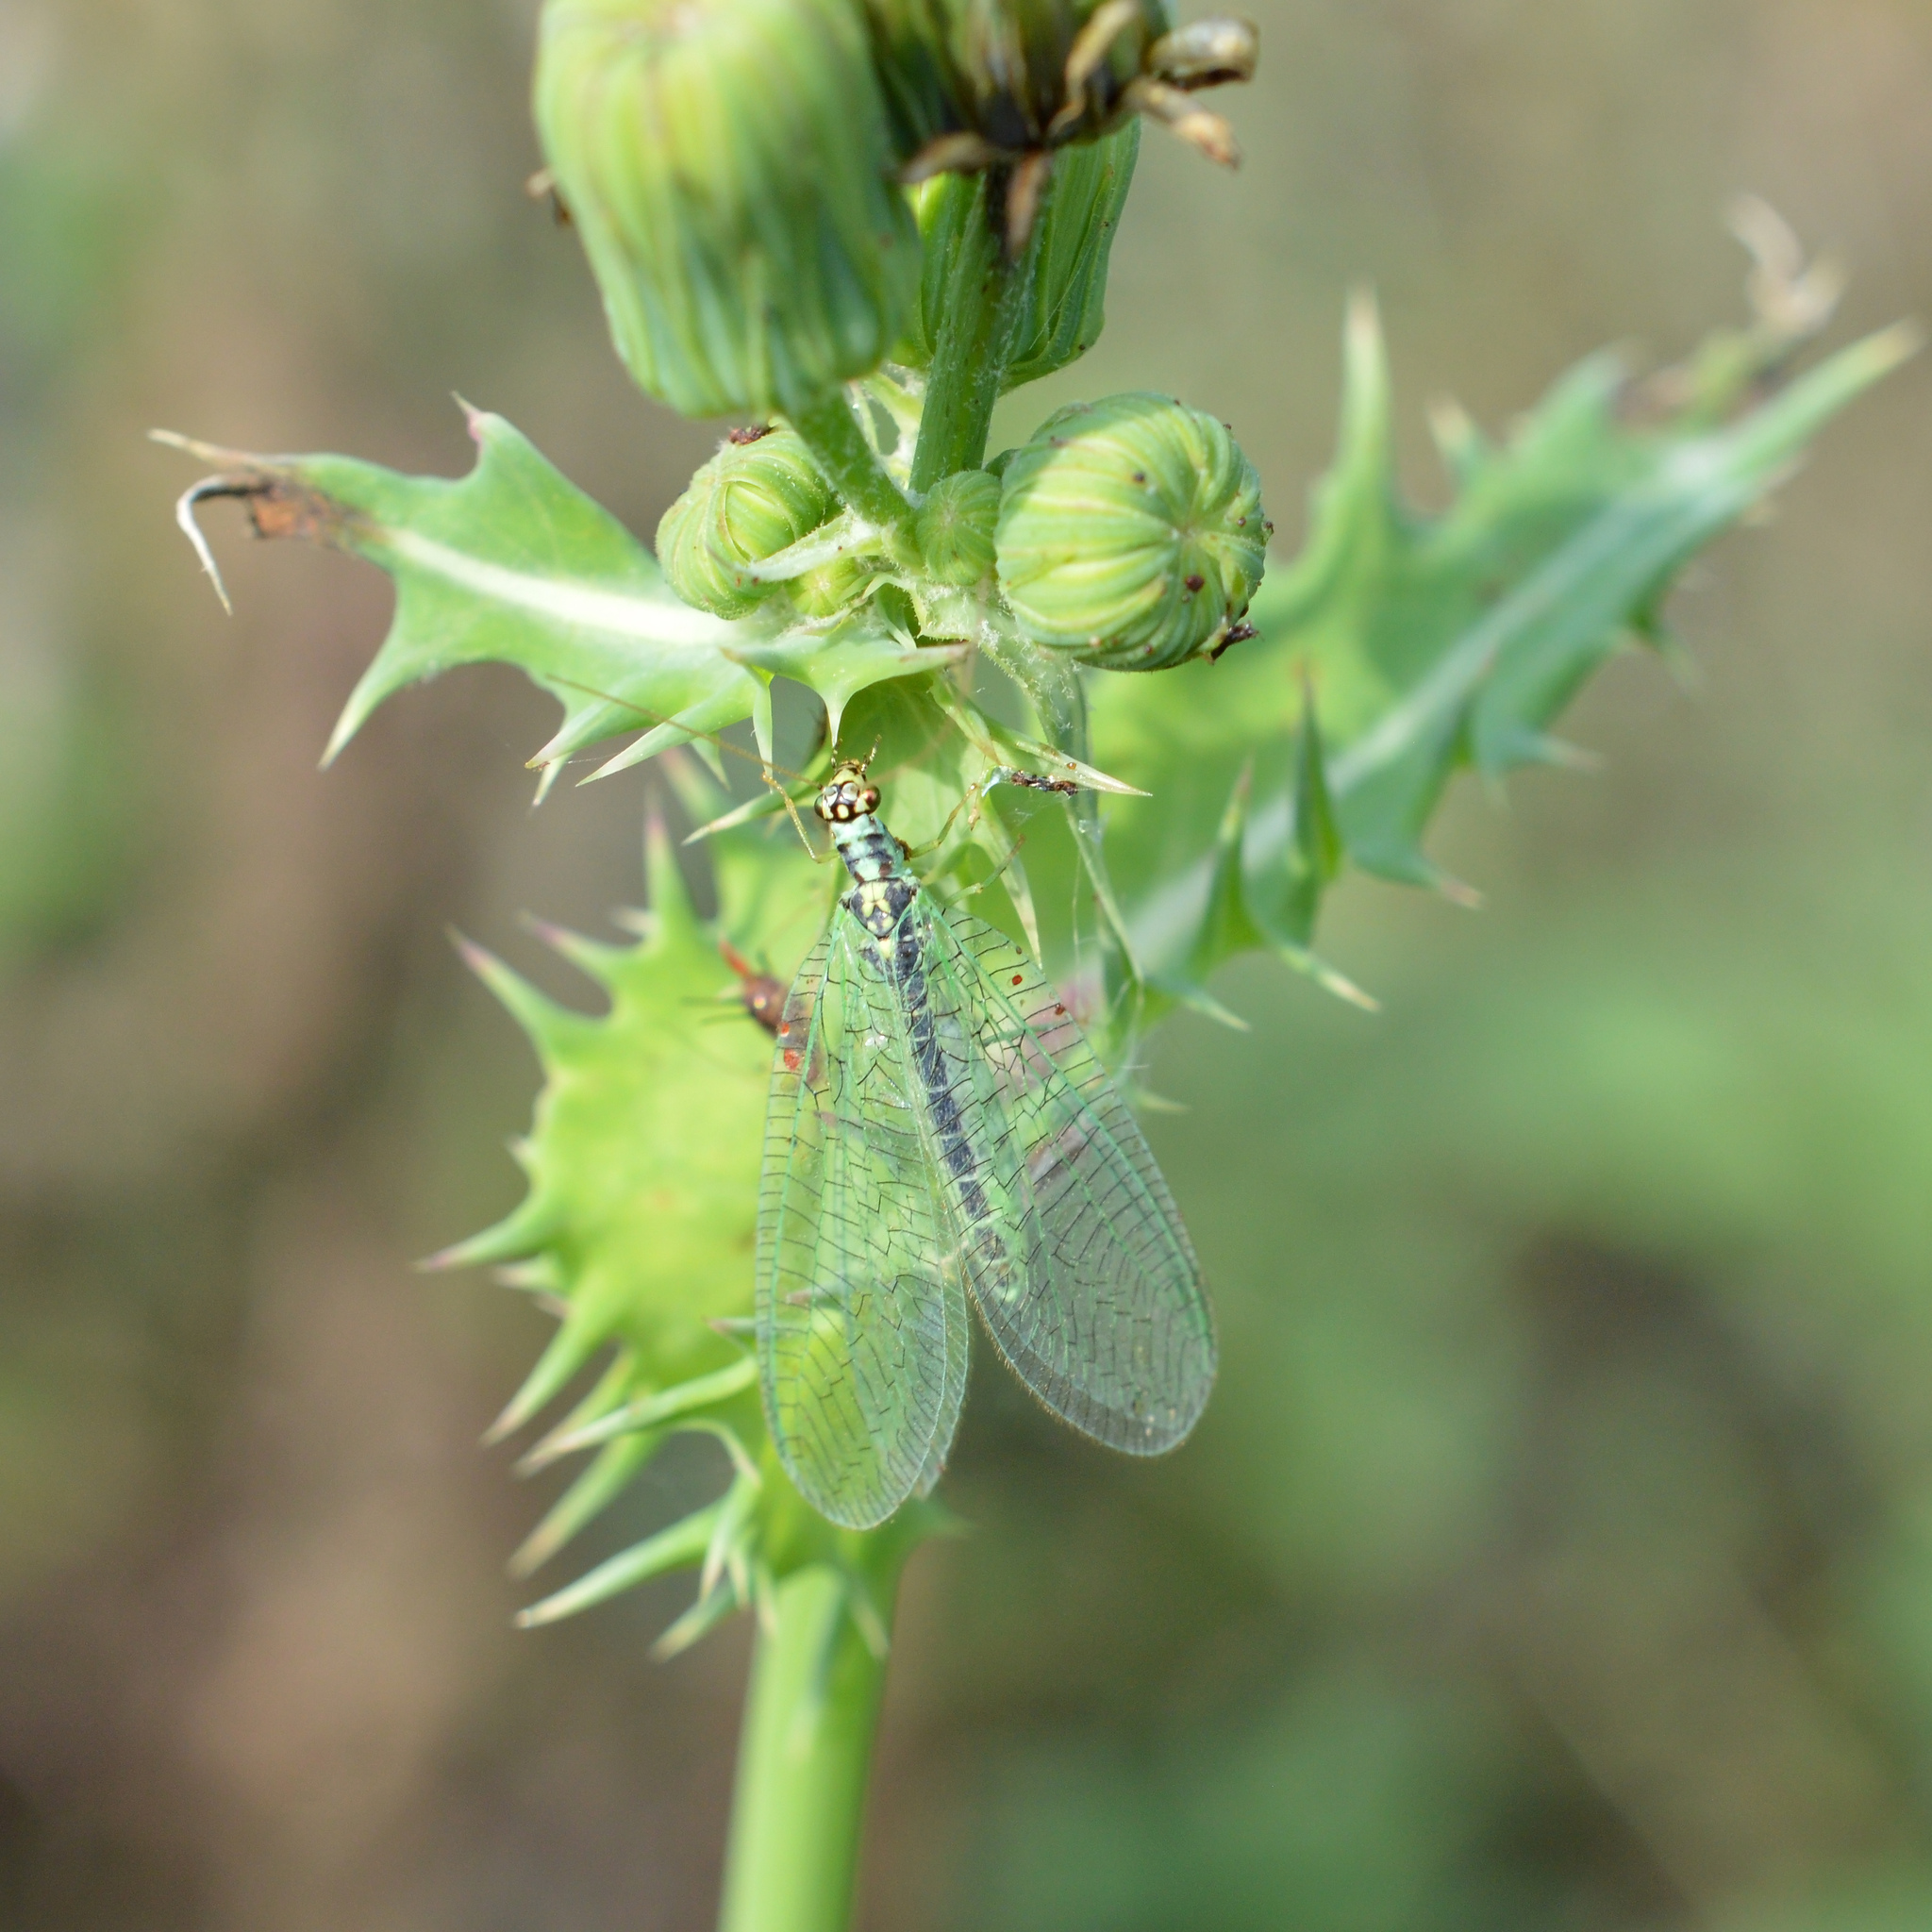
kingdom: Animalia
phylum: Arthropoda
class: Insecta
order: Neuroptera
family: Chrysopidae
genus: Chrysopa
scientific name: Chrysopa perla
